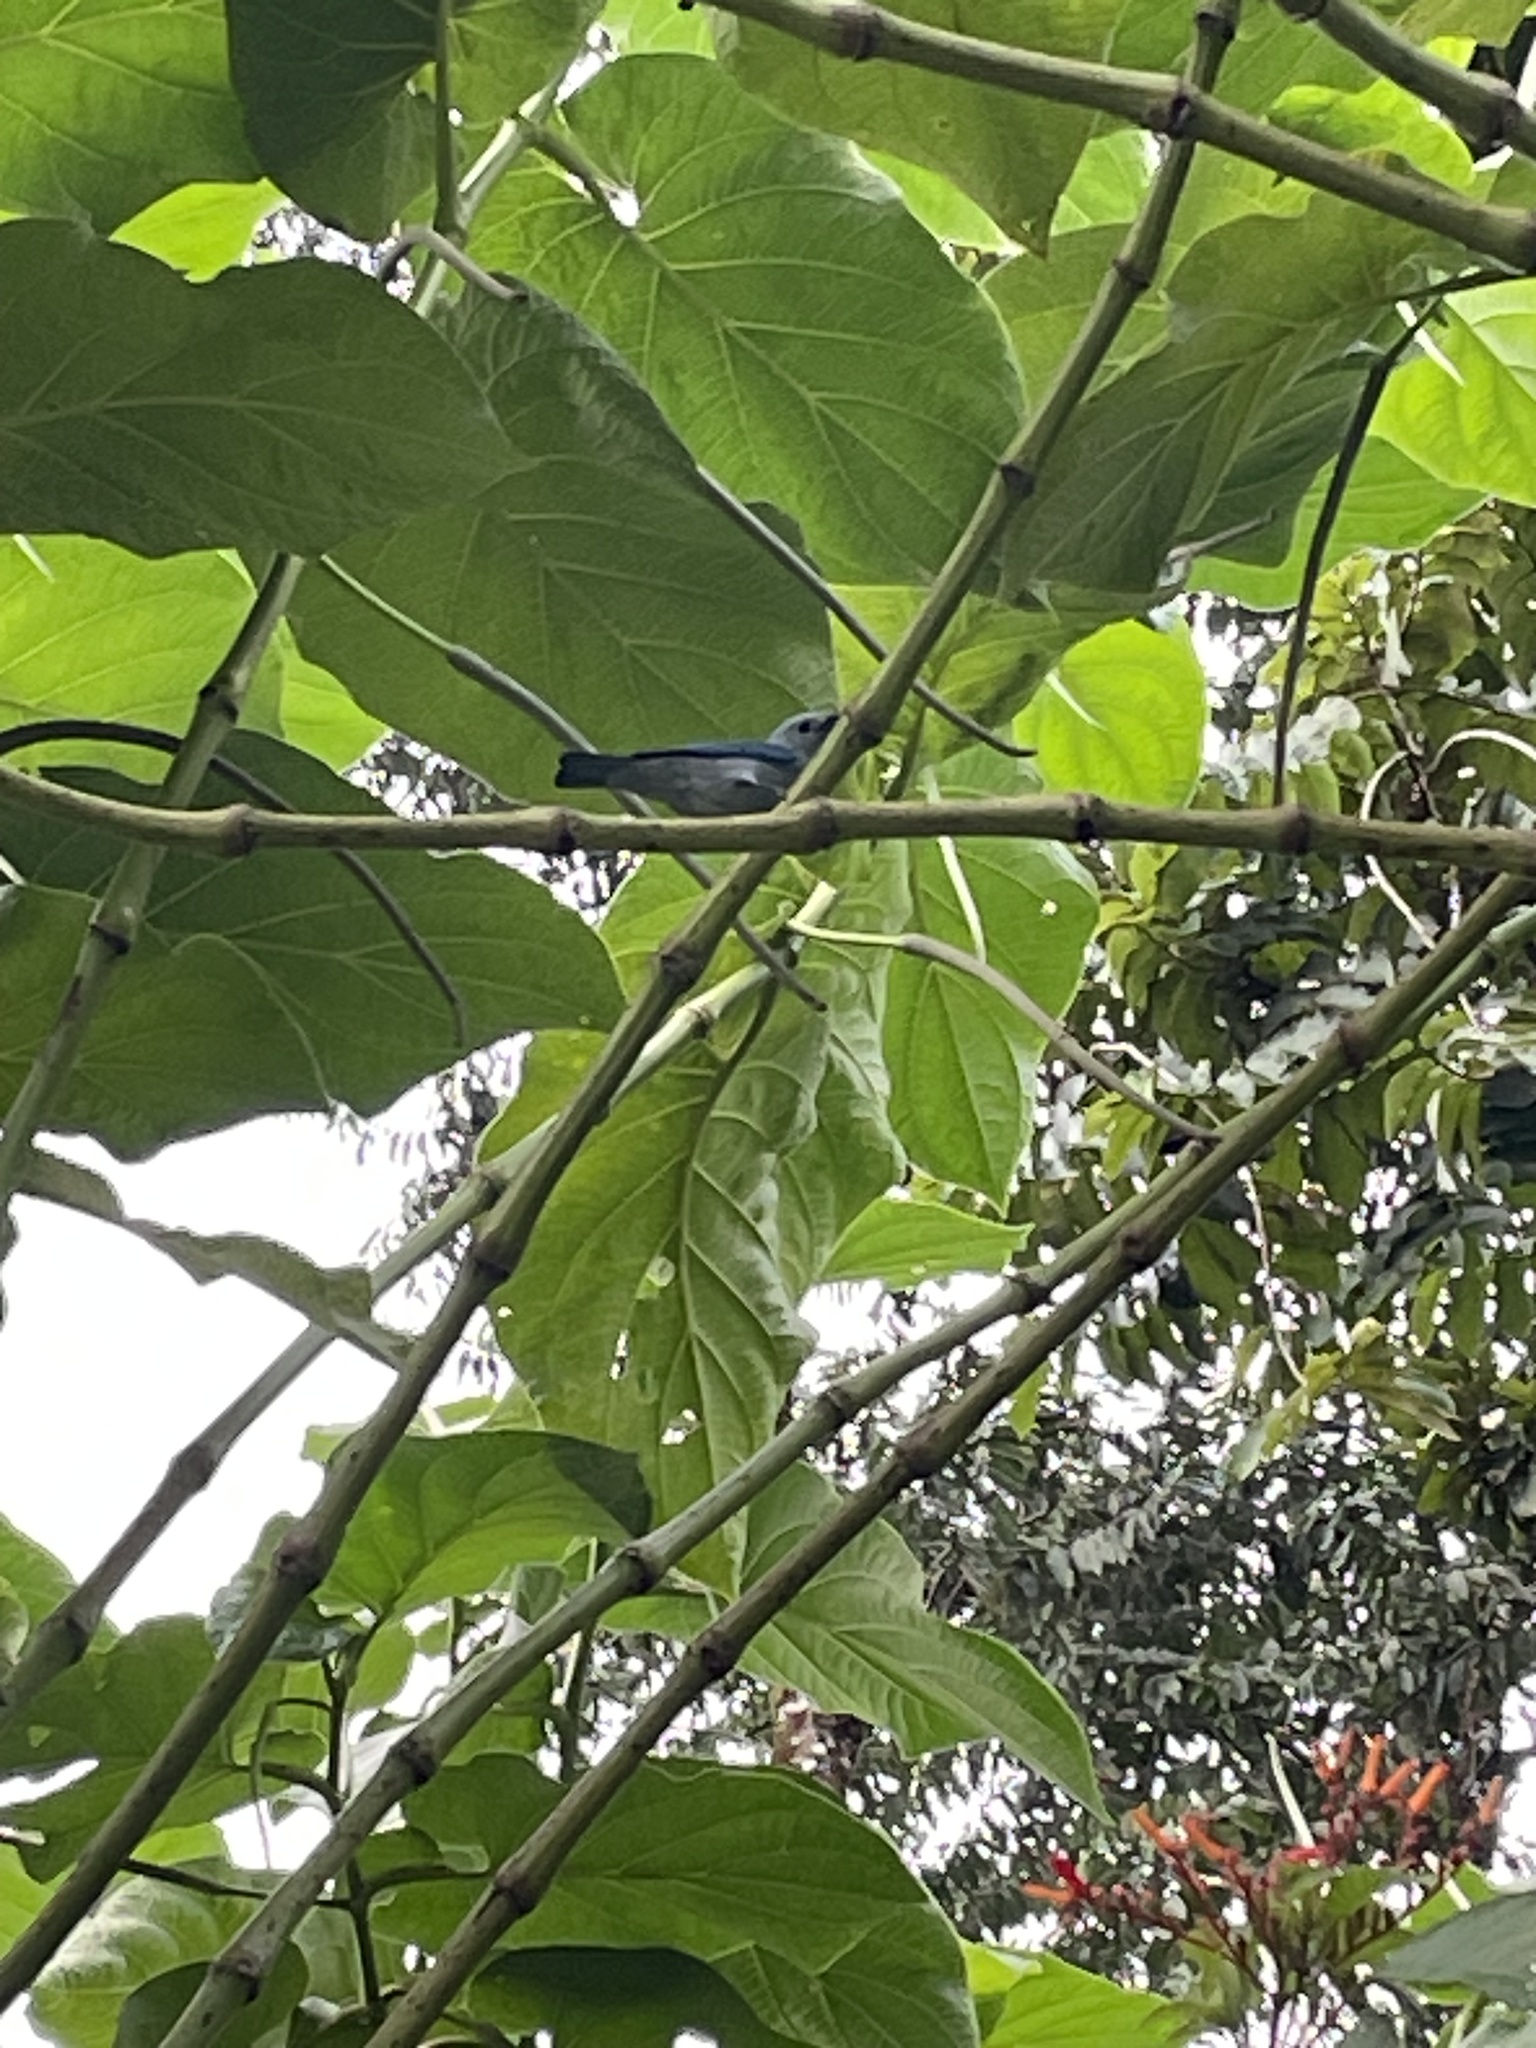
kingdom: Animalia
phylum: Chordata
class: Aves
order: Passeriformes
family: Thraupidae
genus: Thraupis
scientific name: Thraupis episcopus
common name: Blue-grey tanager
